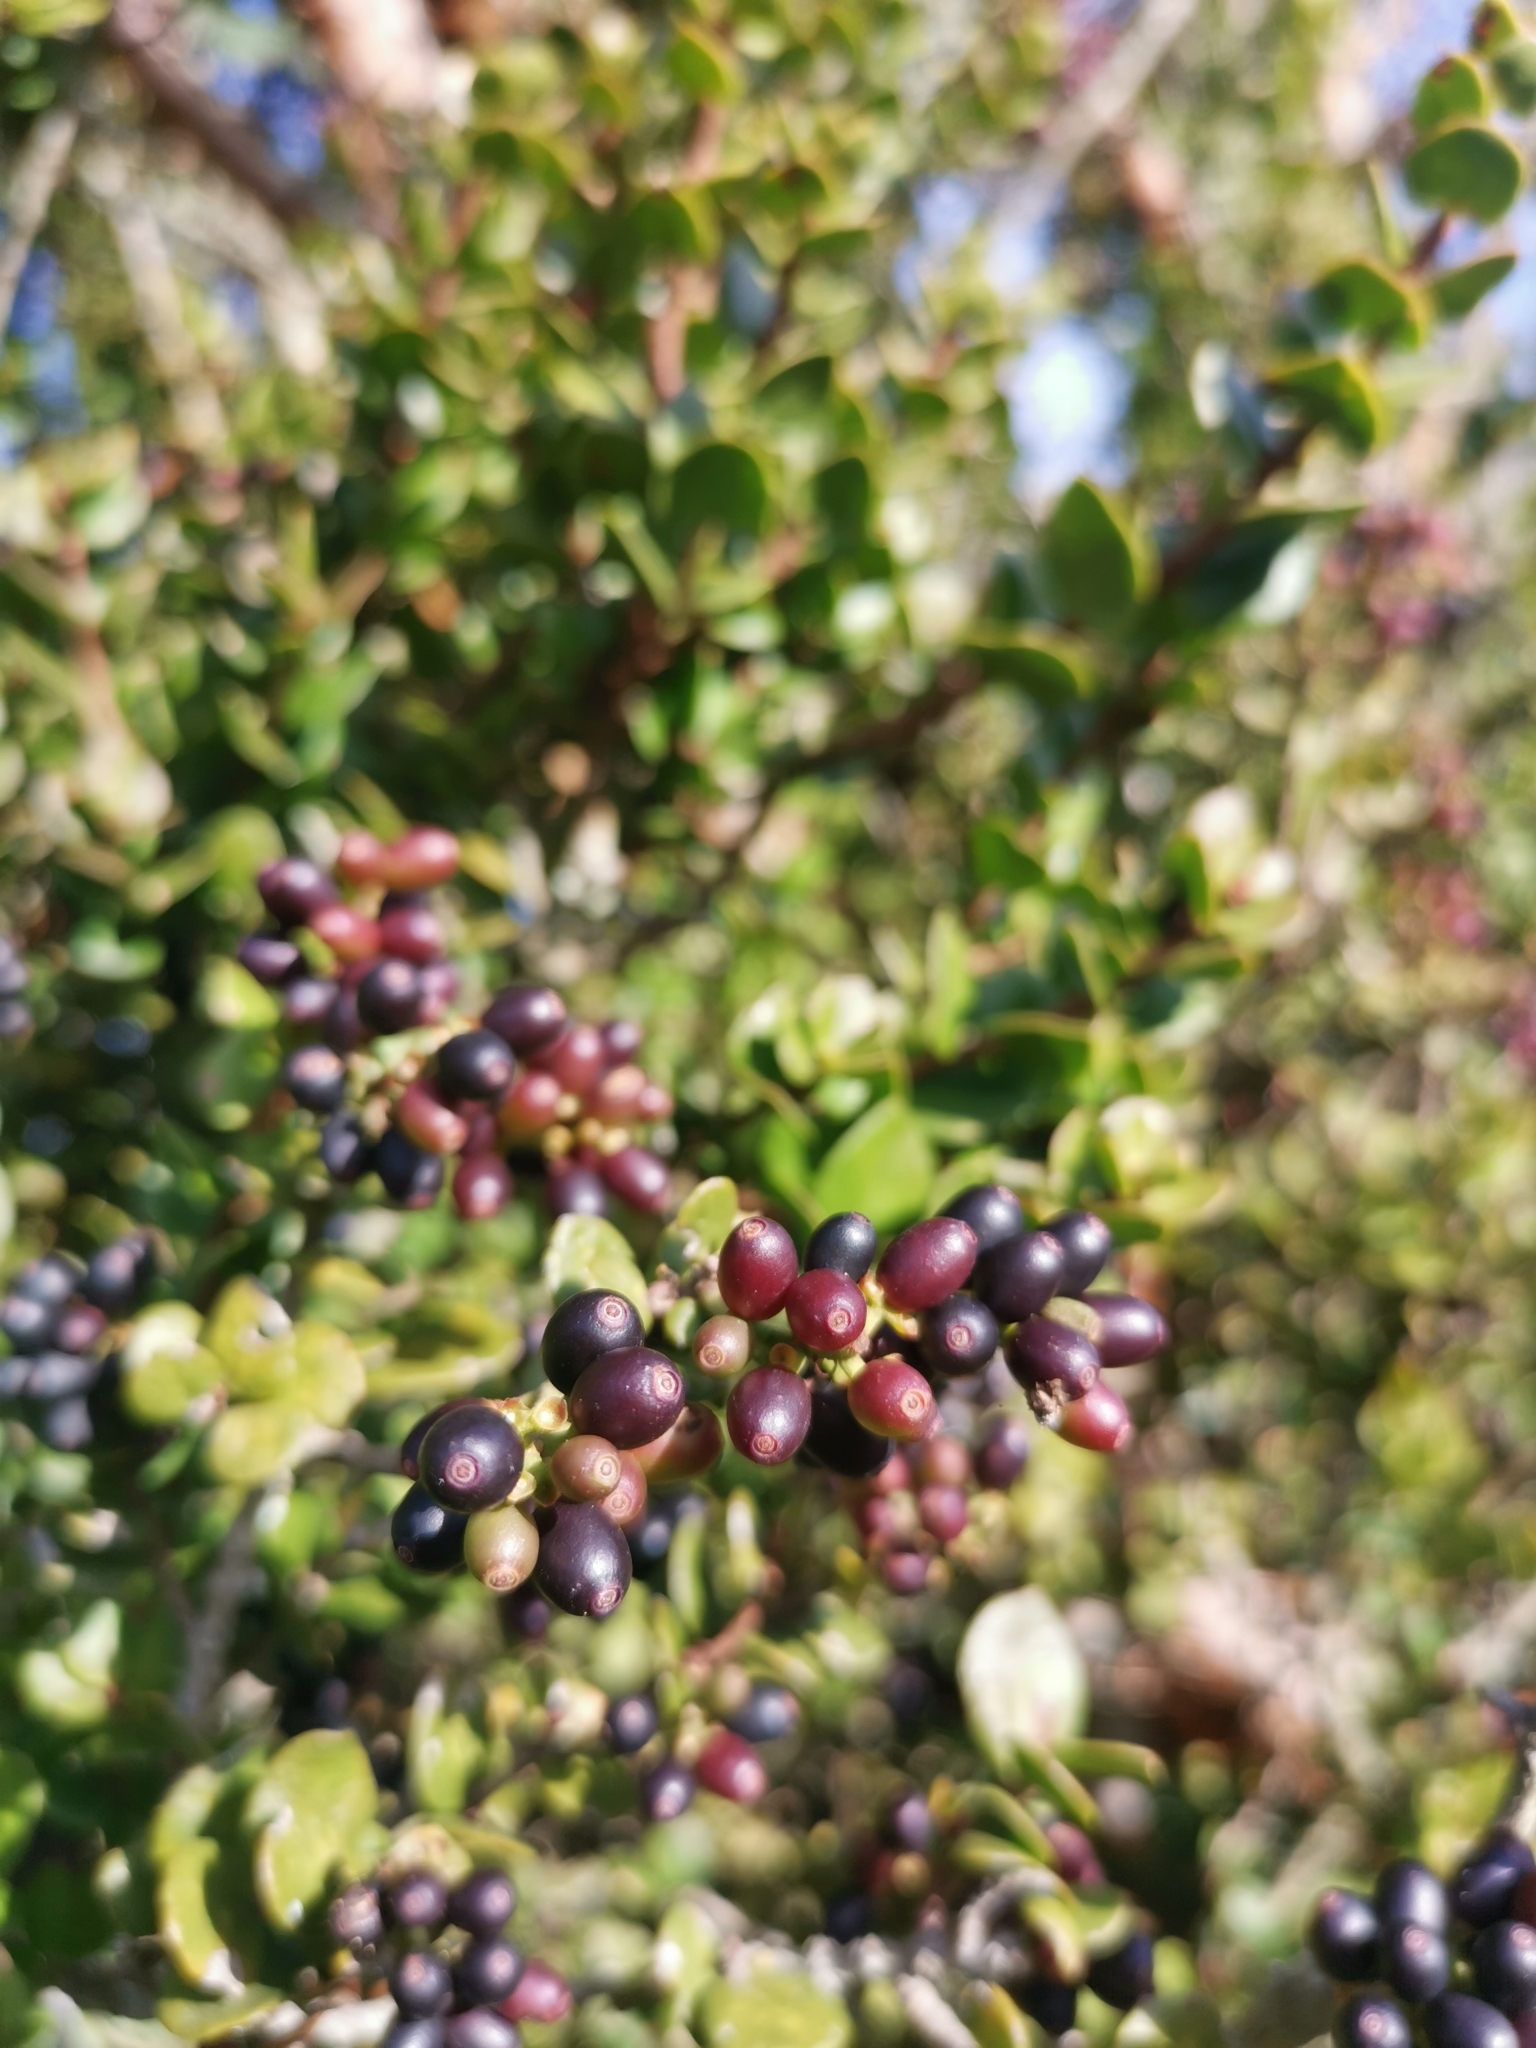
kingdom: Plantae
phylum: Tracheophyta
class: Magnoliopsida
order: Santalales
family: Loranthaceae
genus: Notanthera
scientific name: Notanthera heterophylla
